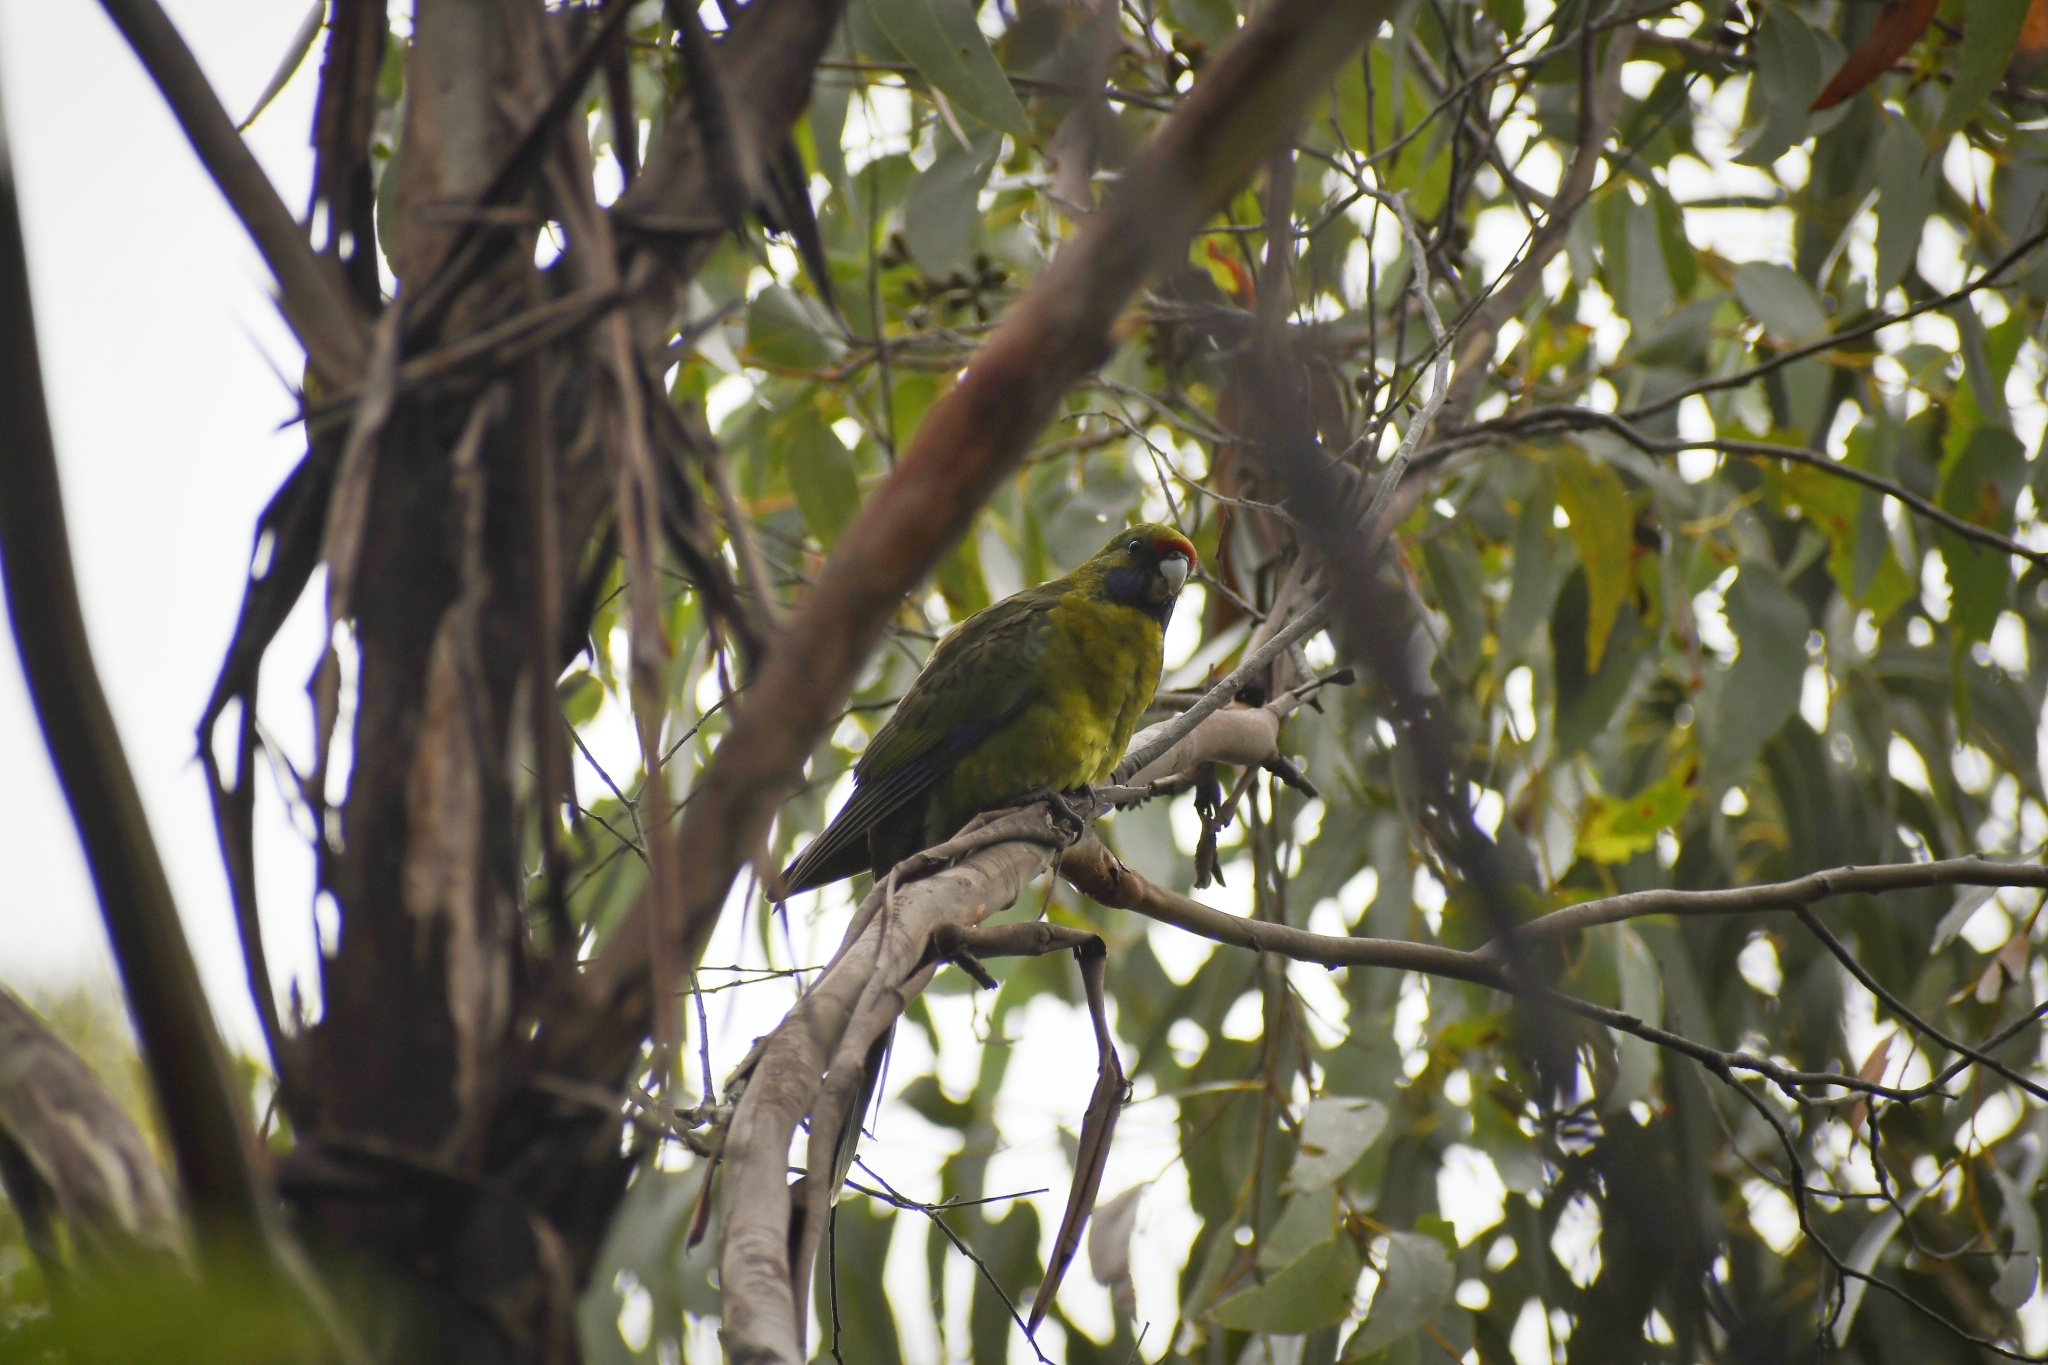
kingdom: Animalia
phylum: Chordata
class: Aves
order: Psittaciformes
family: Psittacidae
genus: Platycercus
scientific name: Platycercus caledonicus
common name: Green rosella
